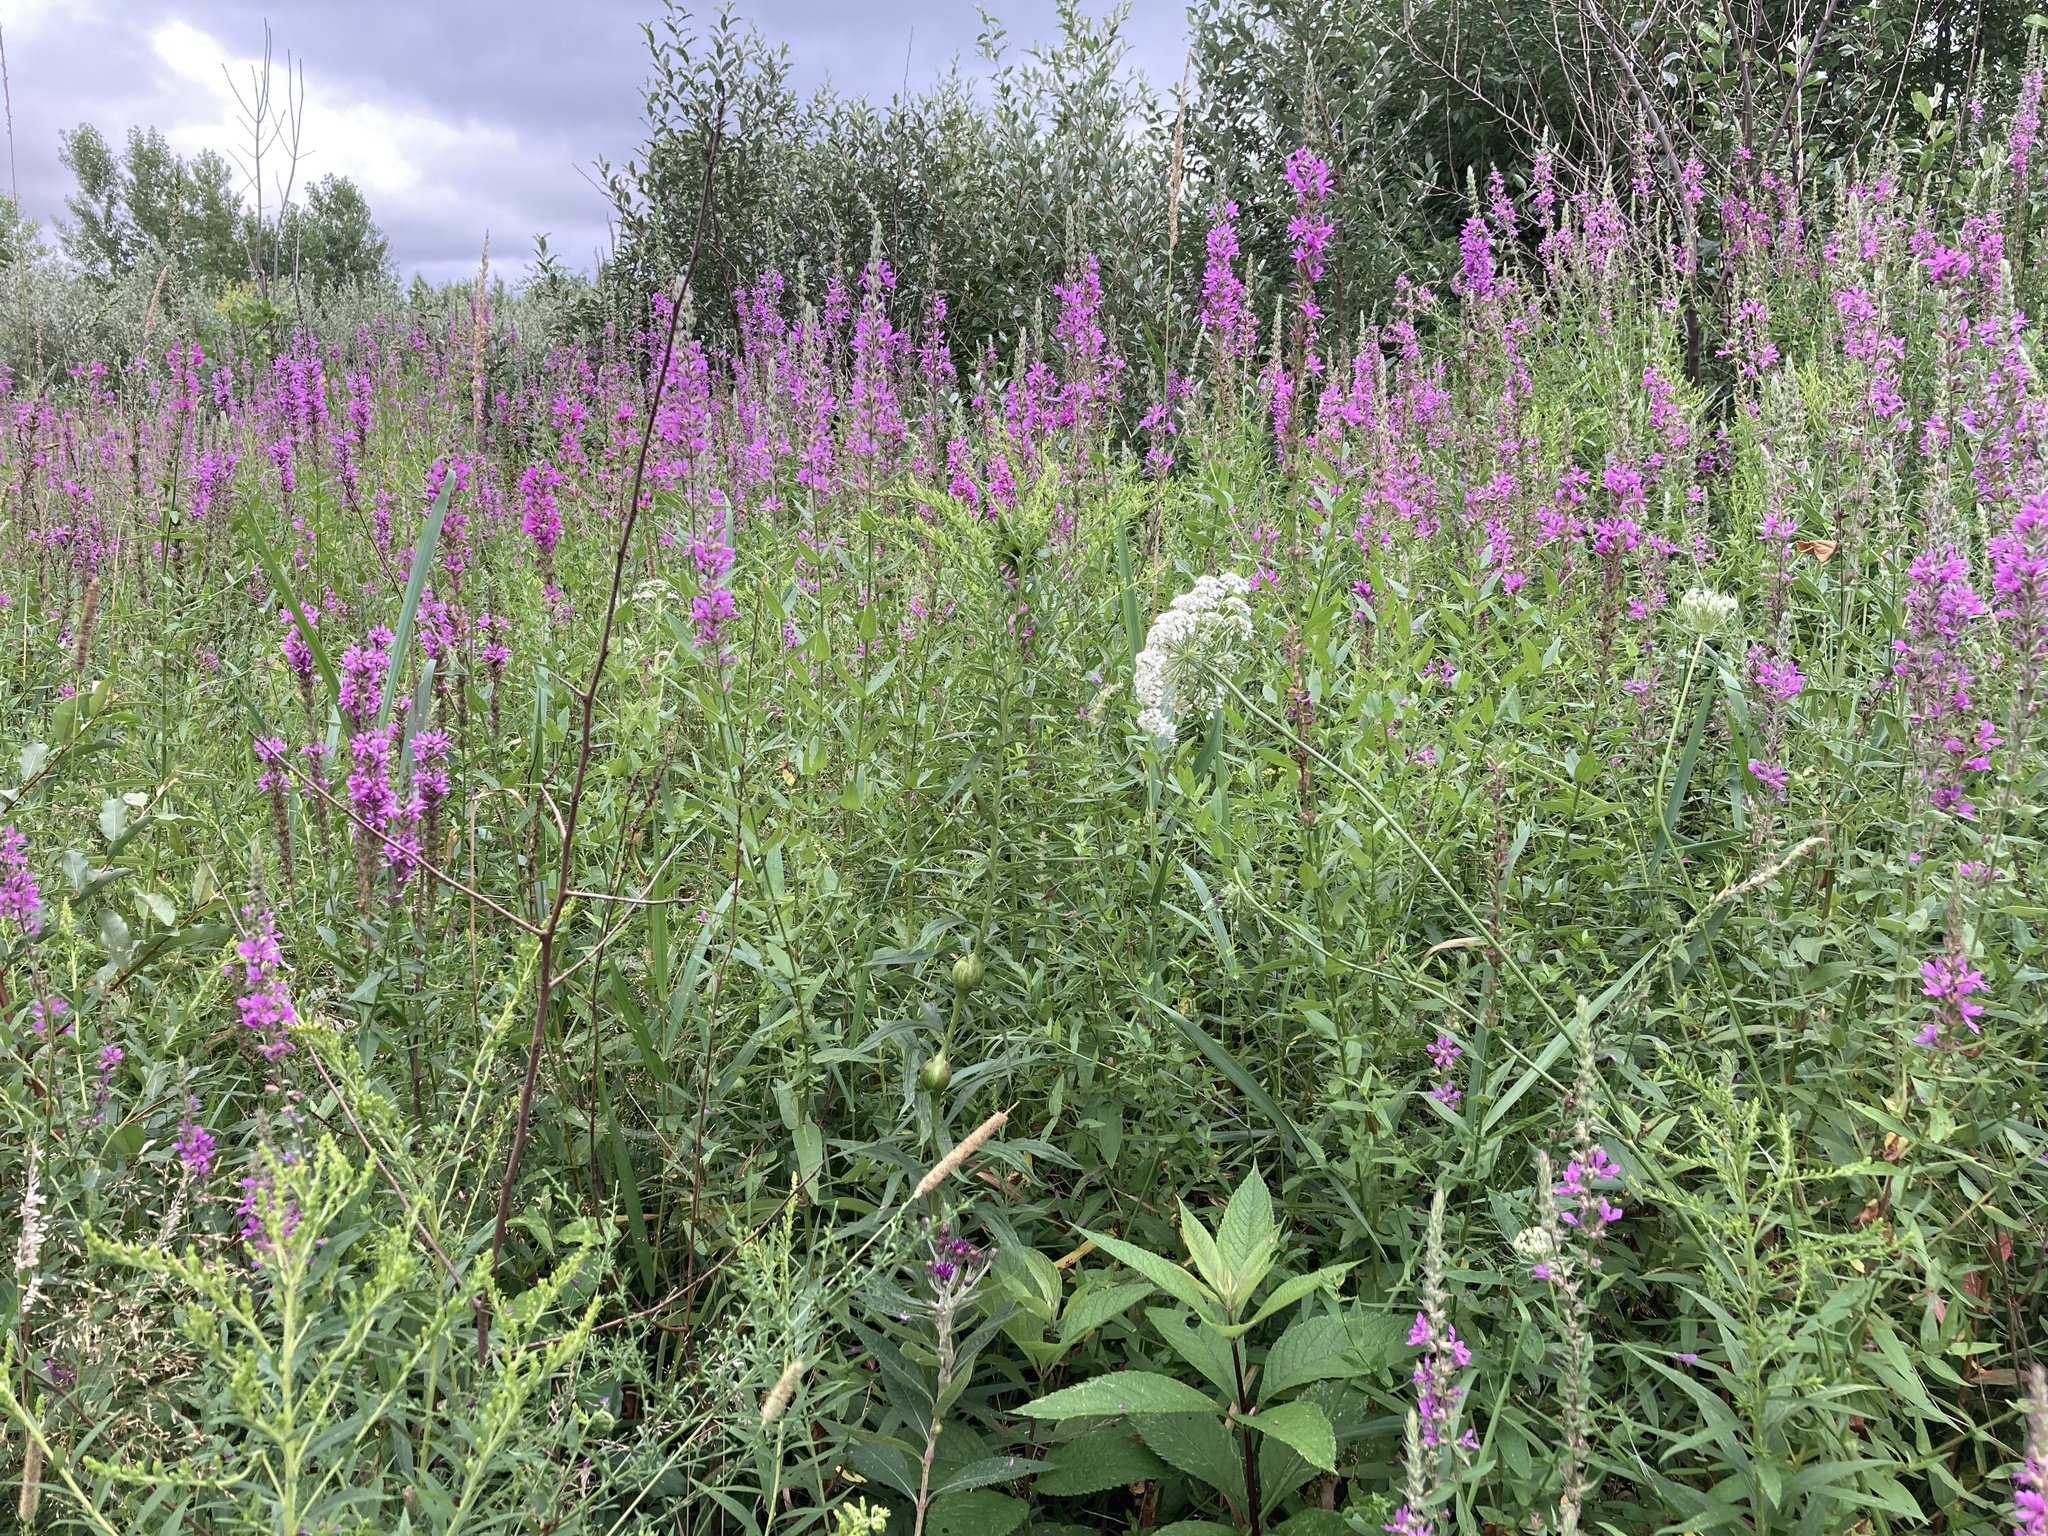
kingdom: Plantae
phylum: Tracheophyta
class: Magnoliopsida
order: Myrtales
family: Lythraceae
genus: Lythrum
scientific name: Lythrum salicaria
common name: Purple loosestrife
